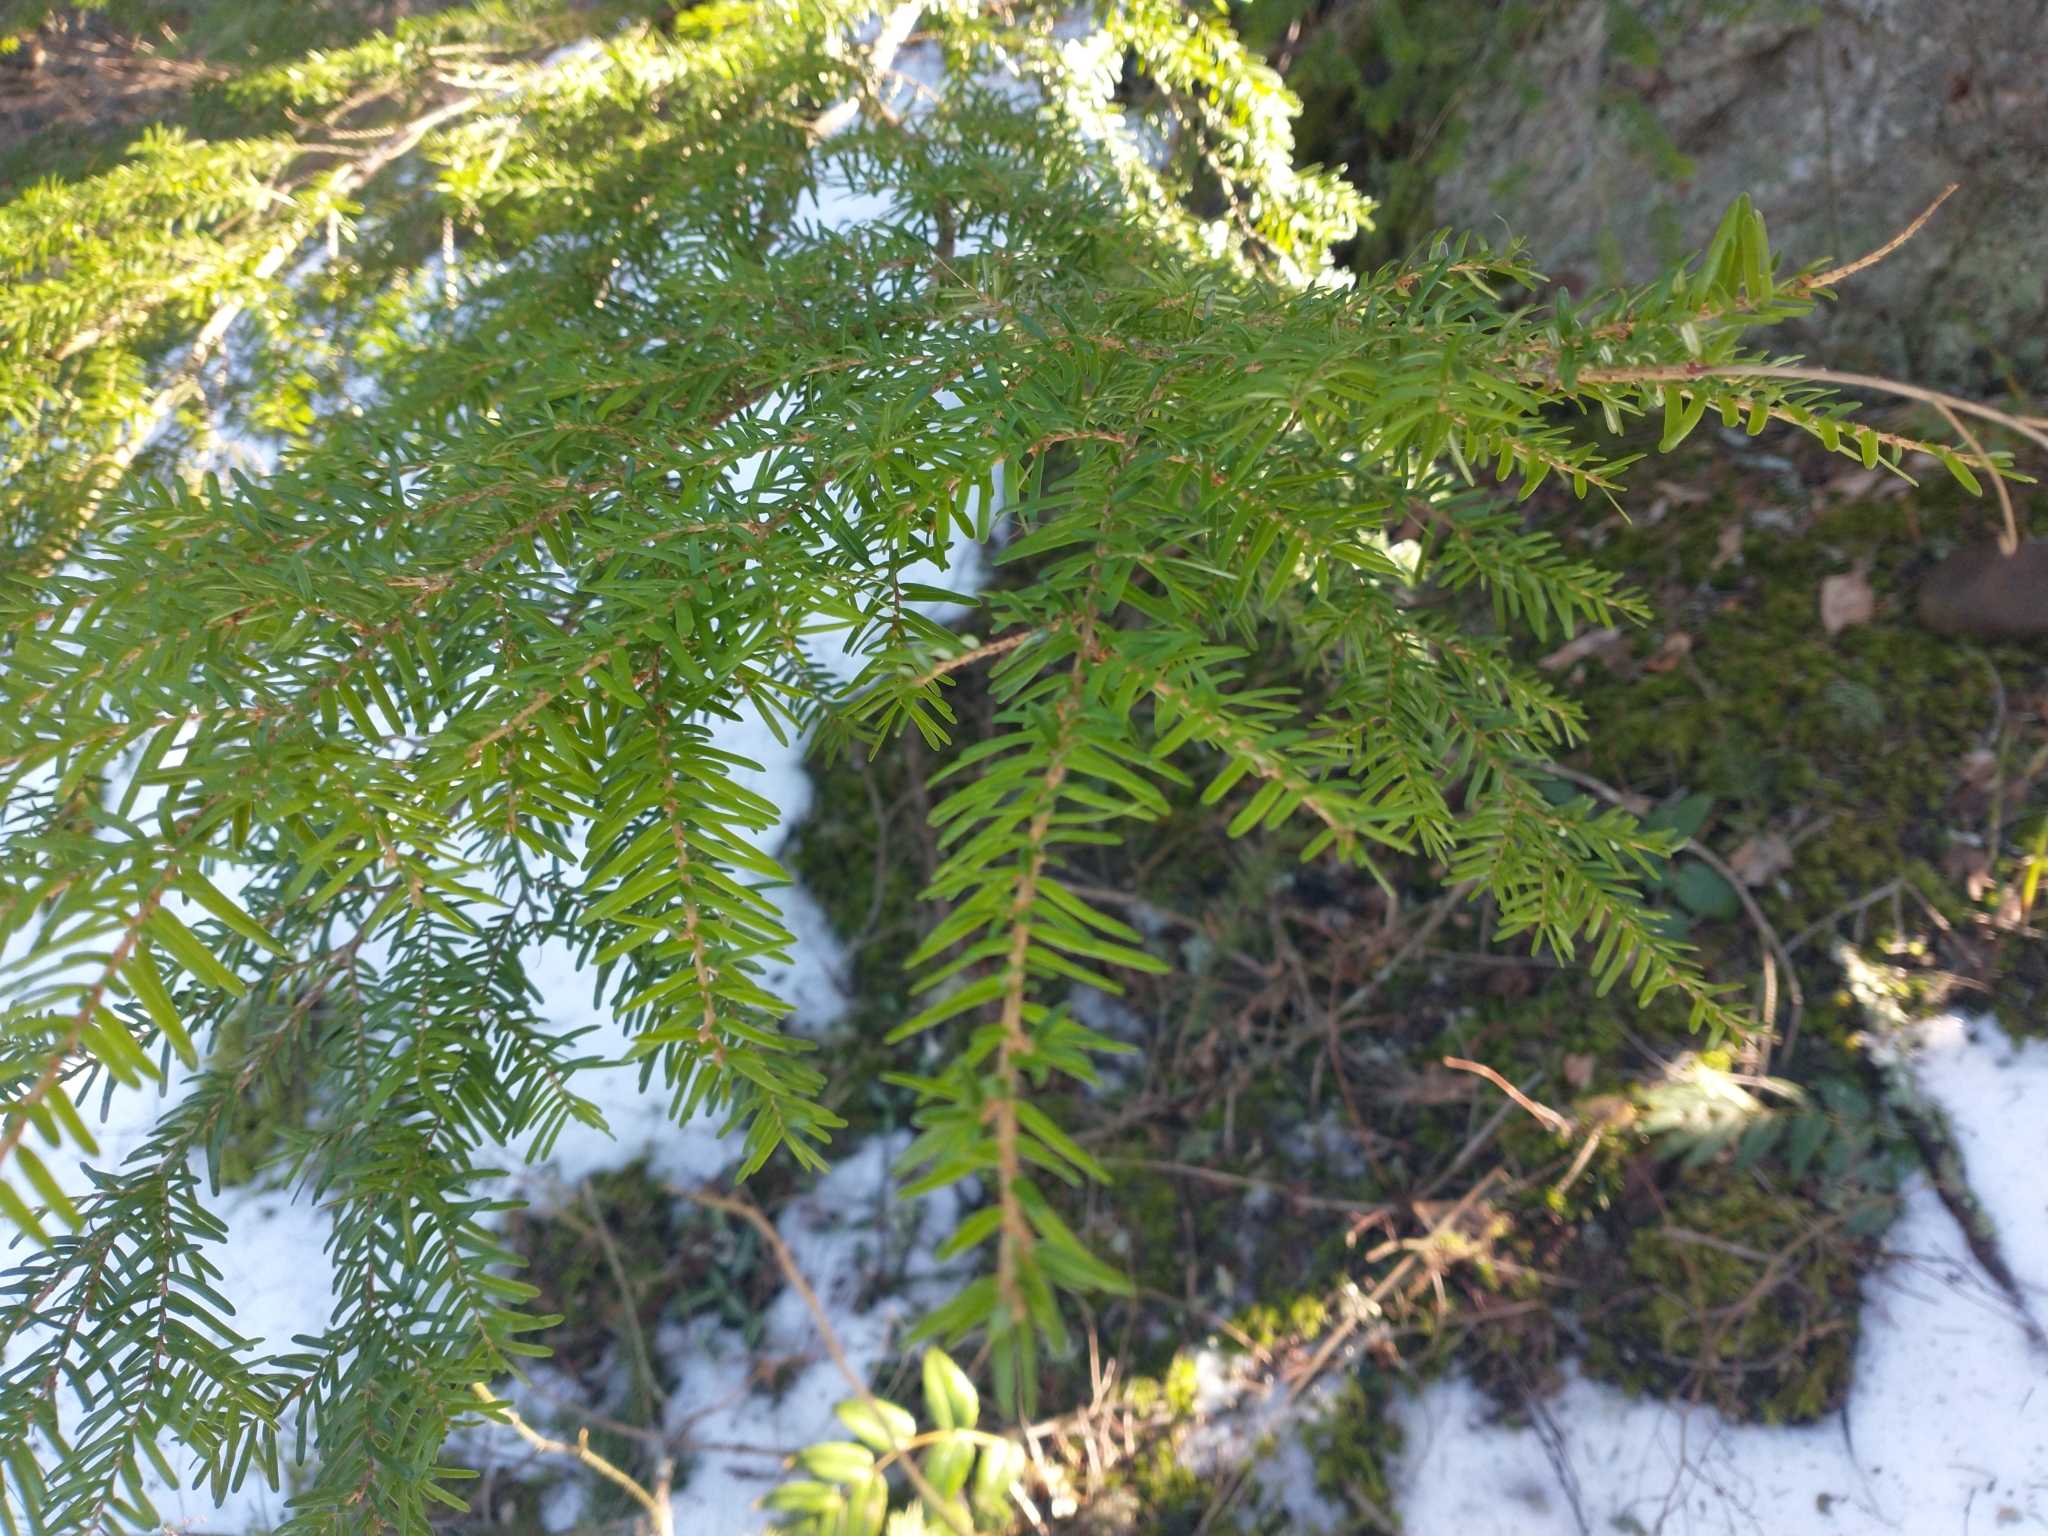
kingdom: Plantae
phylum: Tracheophyta
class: Pinopsida
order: Pinales
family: Pinaceae
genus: Tsuga
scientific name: Tsuga heterophylla
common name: Western hemlock
